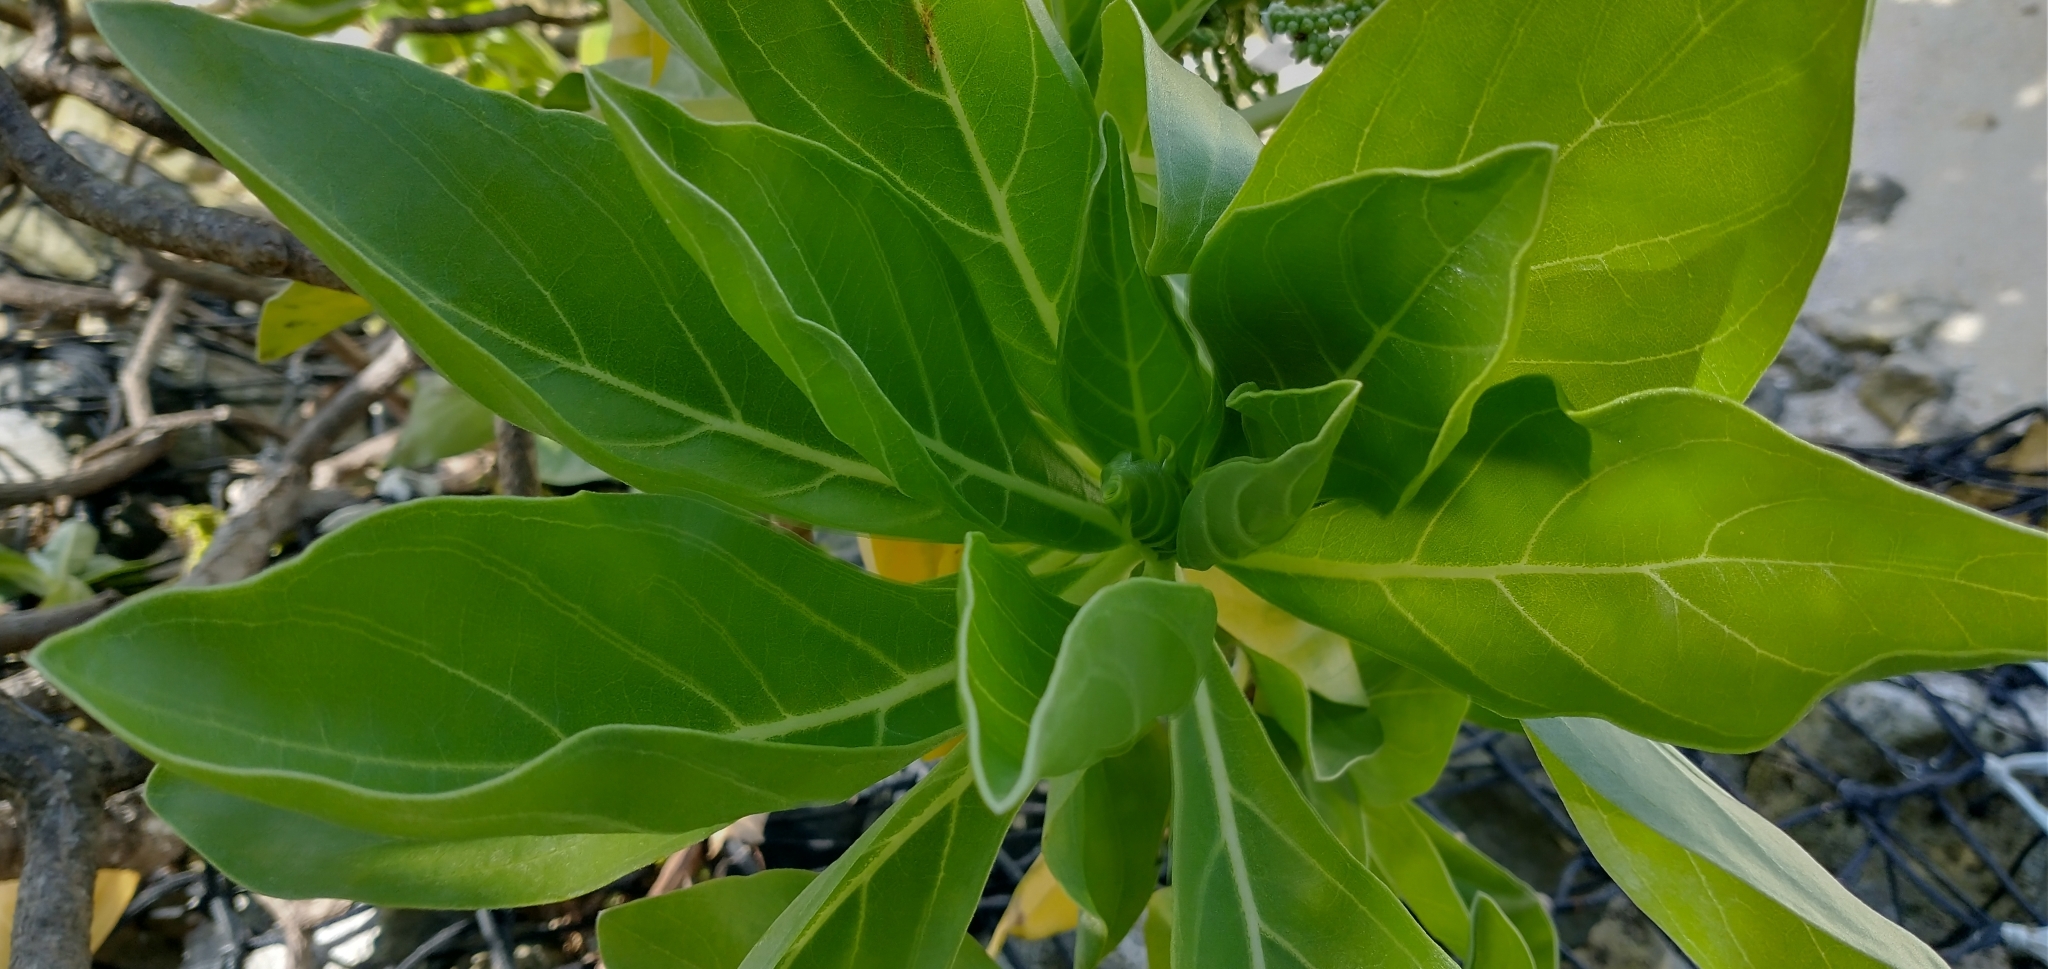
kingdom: Plantae
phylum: Tracheophyta
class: Magnoliopsida
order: Boraginales
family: Heliotropiaceae
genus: Heliotropium
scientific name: Heliotropium velutinum
